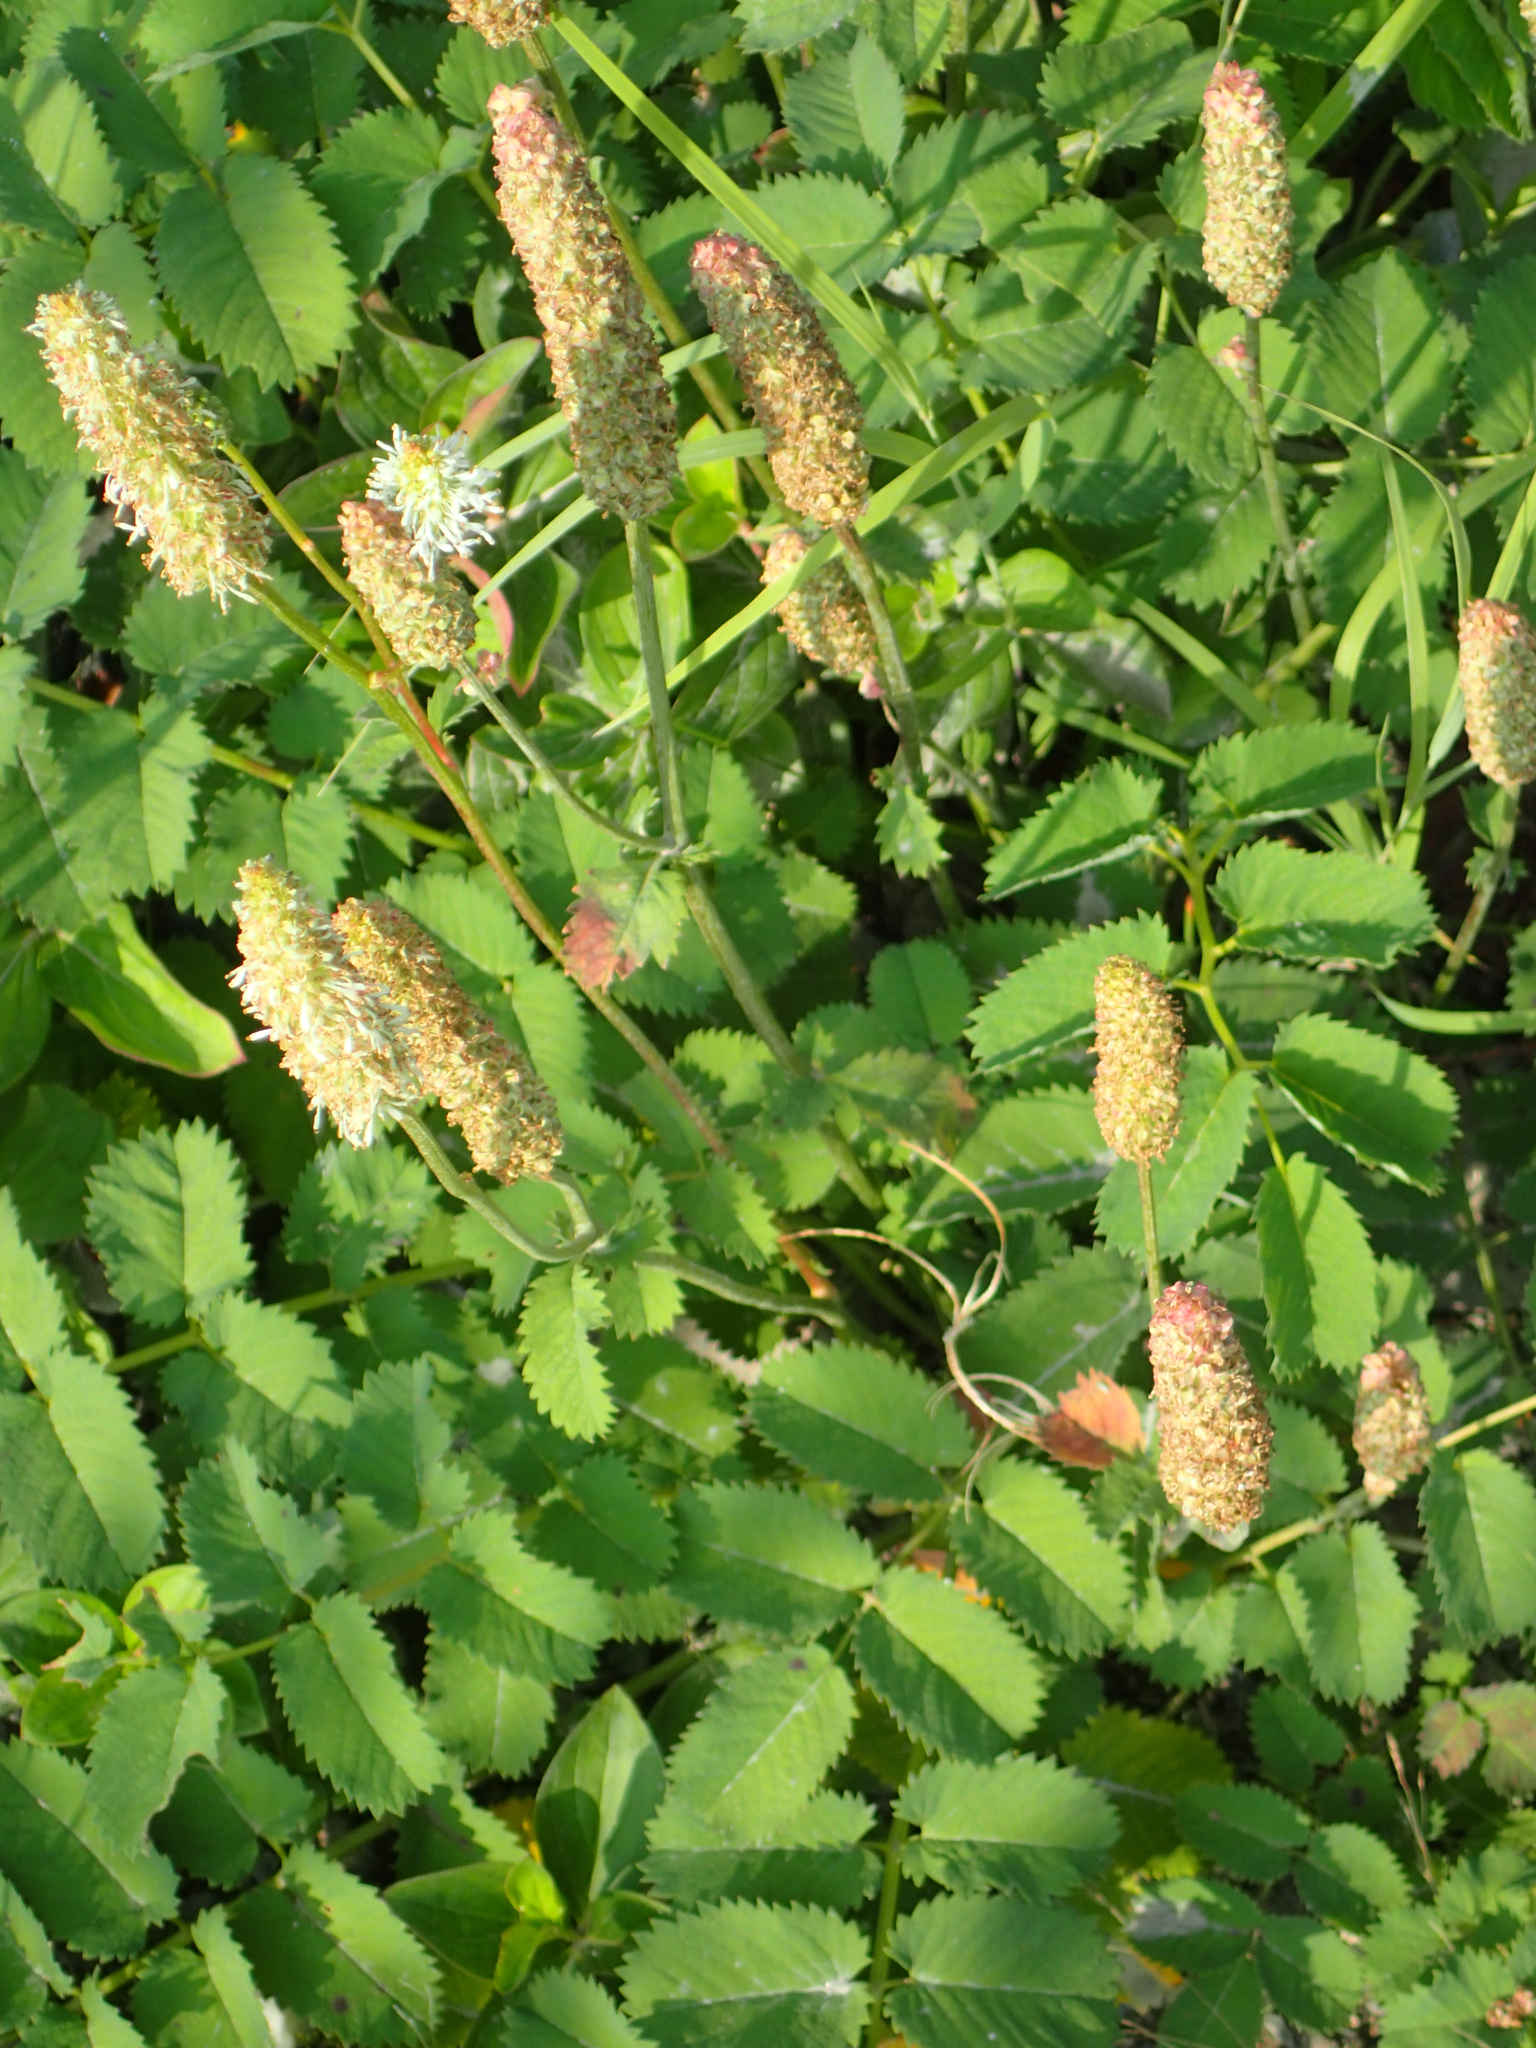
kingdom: Plantae
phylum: Tracheophyta
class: Magnoliopsida
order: Rosales
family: Rosaceae
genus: Sanguisorba
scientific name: Sanguisorba stipulata
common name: Sitka burnet
